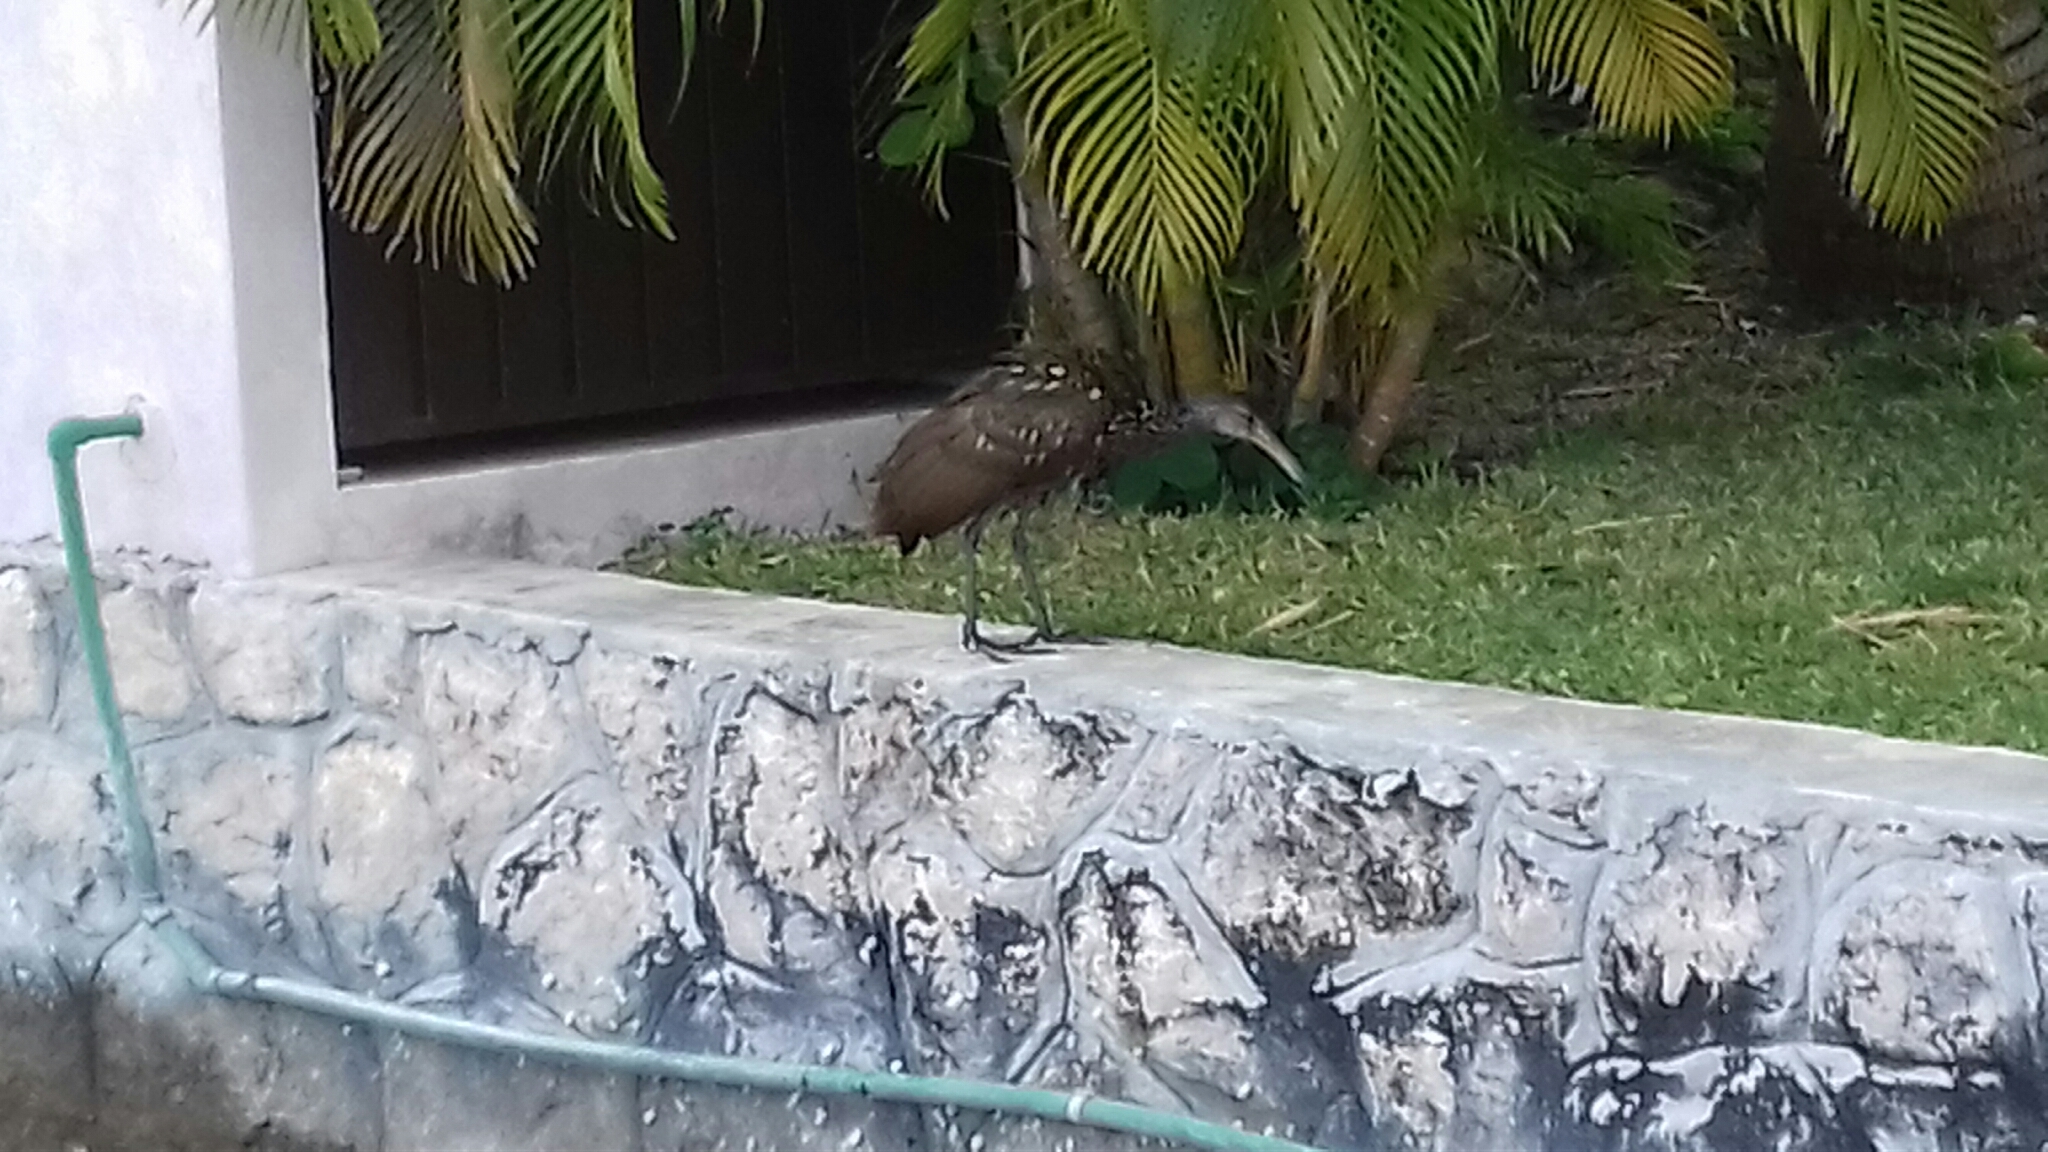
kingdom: Animalia
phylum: Chordata
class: Aves
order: Gruiformes
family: Aramidae
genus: Aramus
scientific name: Aramus guarauna
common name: Limpkin
